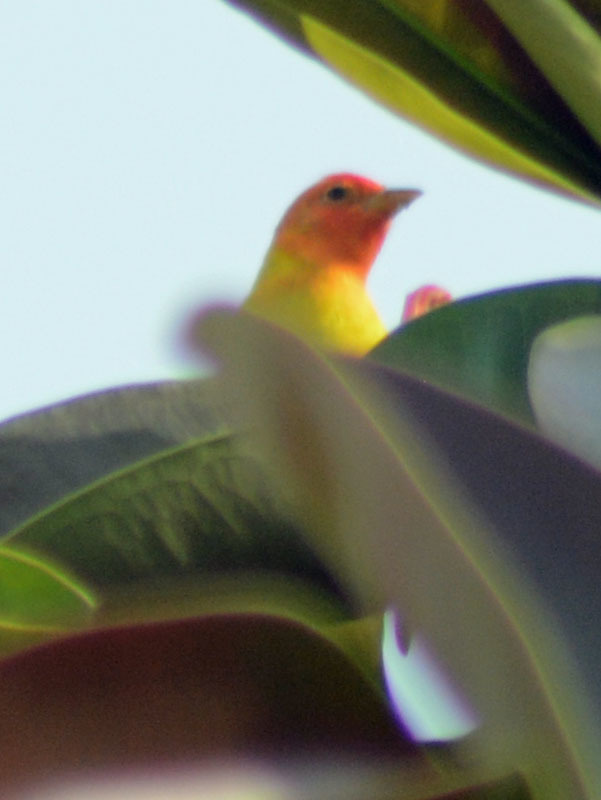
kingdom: Animalia
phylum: Chordata
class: Aves
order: Passeriformes
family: Cardinalidae
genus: Piranga
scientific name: Piranga ludoviciana
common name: Western tanager
